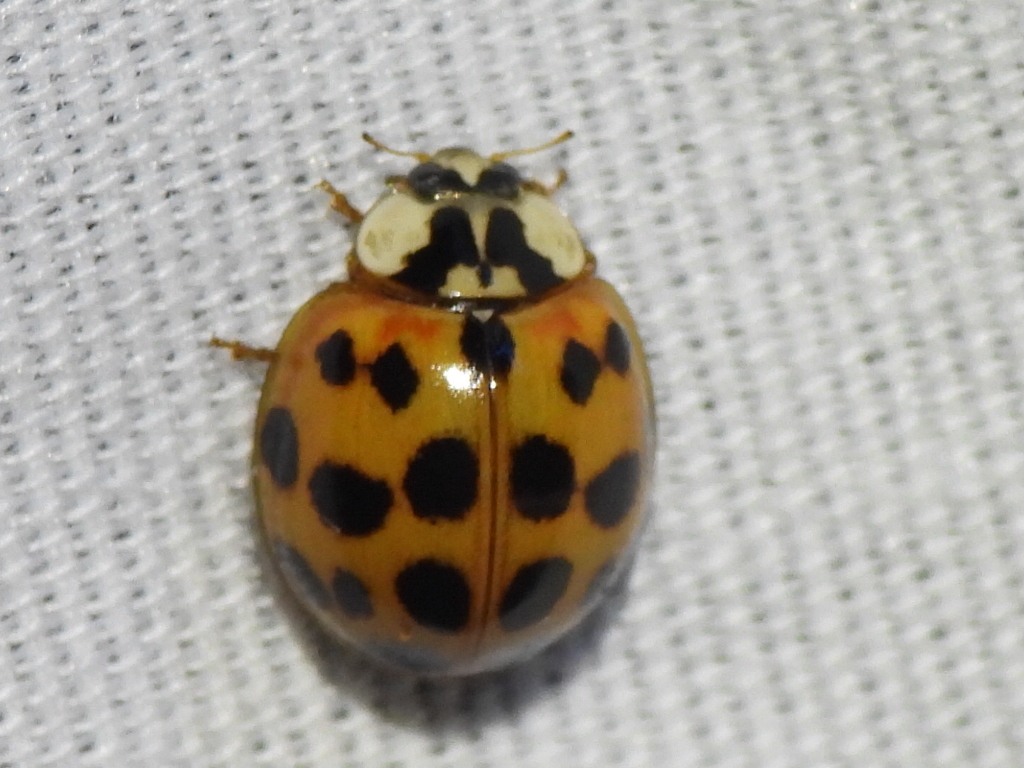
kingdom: Animalia
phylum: Arthropoda
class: Insecta
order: Coleoptera
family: Coccinellidae
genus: Harmonia
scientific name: Harmonia axyridis
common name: Harlequin ladybird
